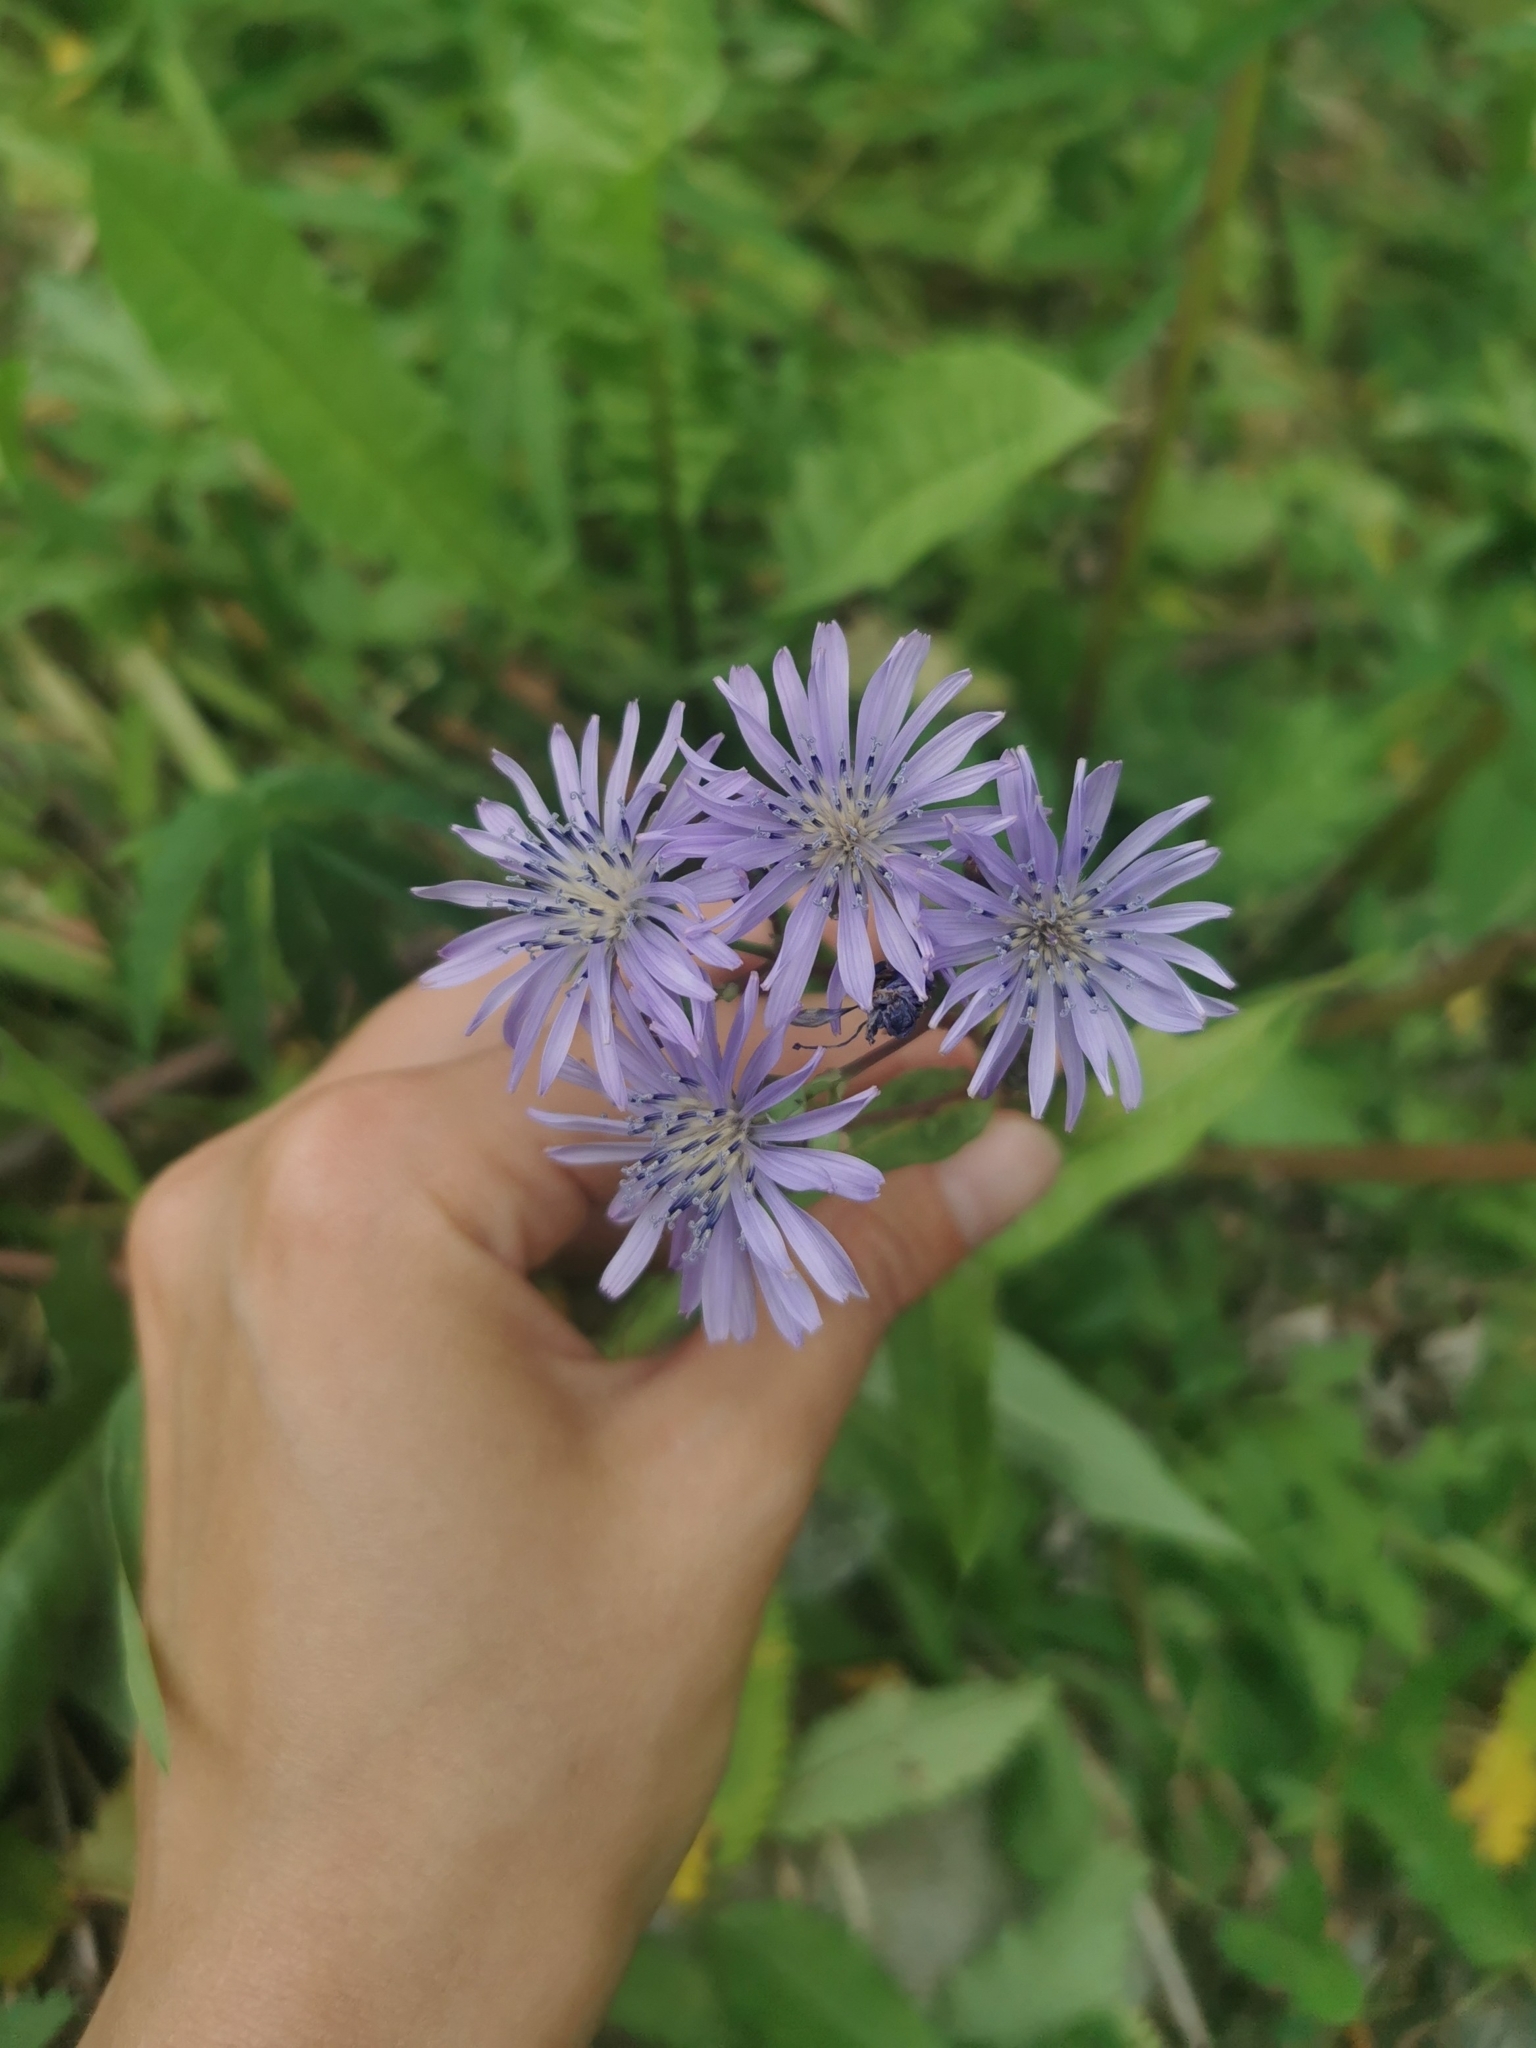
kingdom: Plantae
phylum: Tracheophyta
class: Magnoliopsida
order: Asterales
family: Asteraceae
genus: Lactuca
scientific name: Lactuca sibirica
